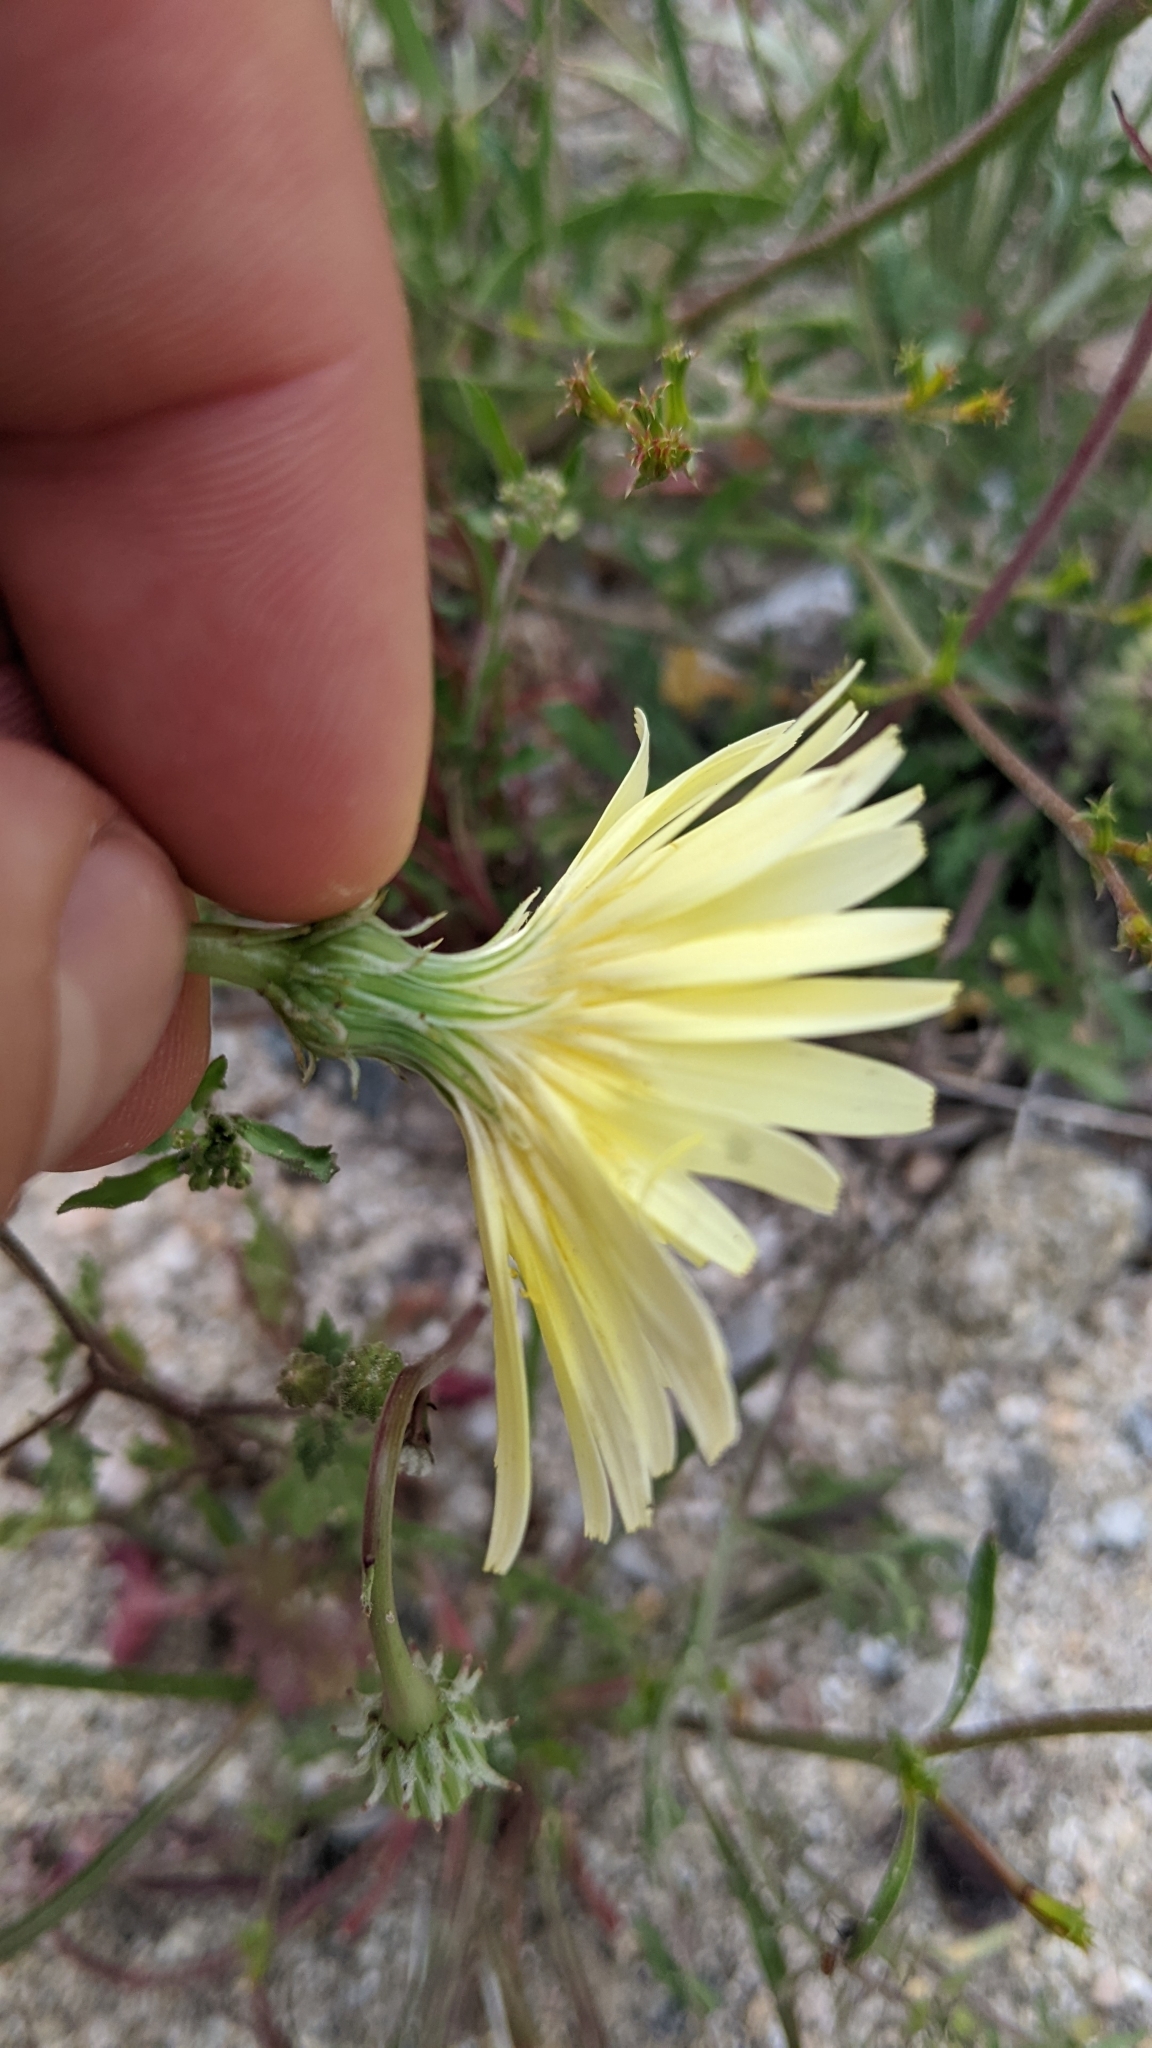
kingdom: Plantae
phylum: Tracheophyta
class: Magnoliopsida
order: Asterales
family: Asteraceae
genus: Malacothrix
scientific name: Malacothrix glabrata
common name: Smooth desert-dandelion
